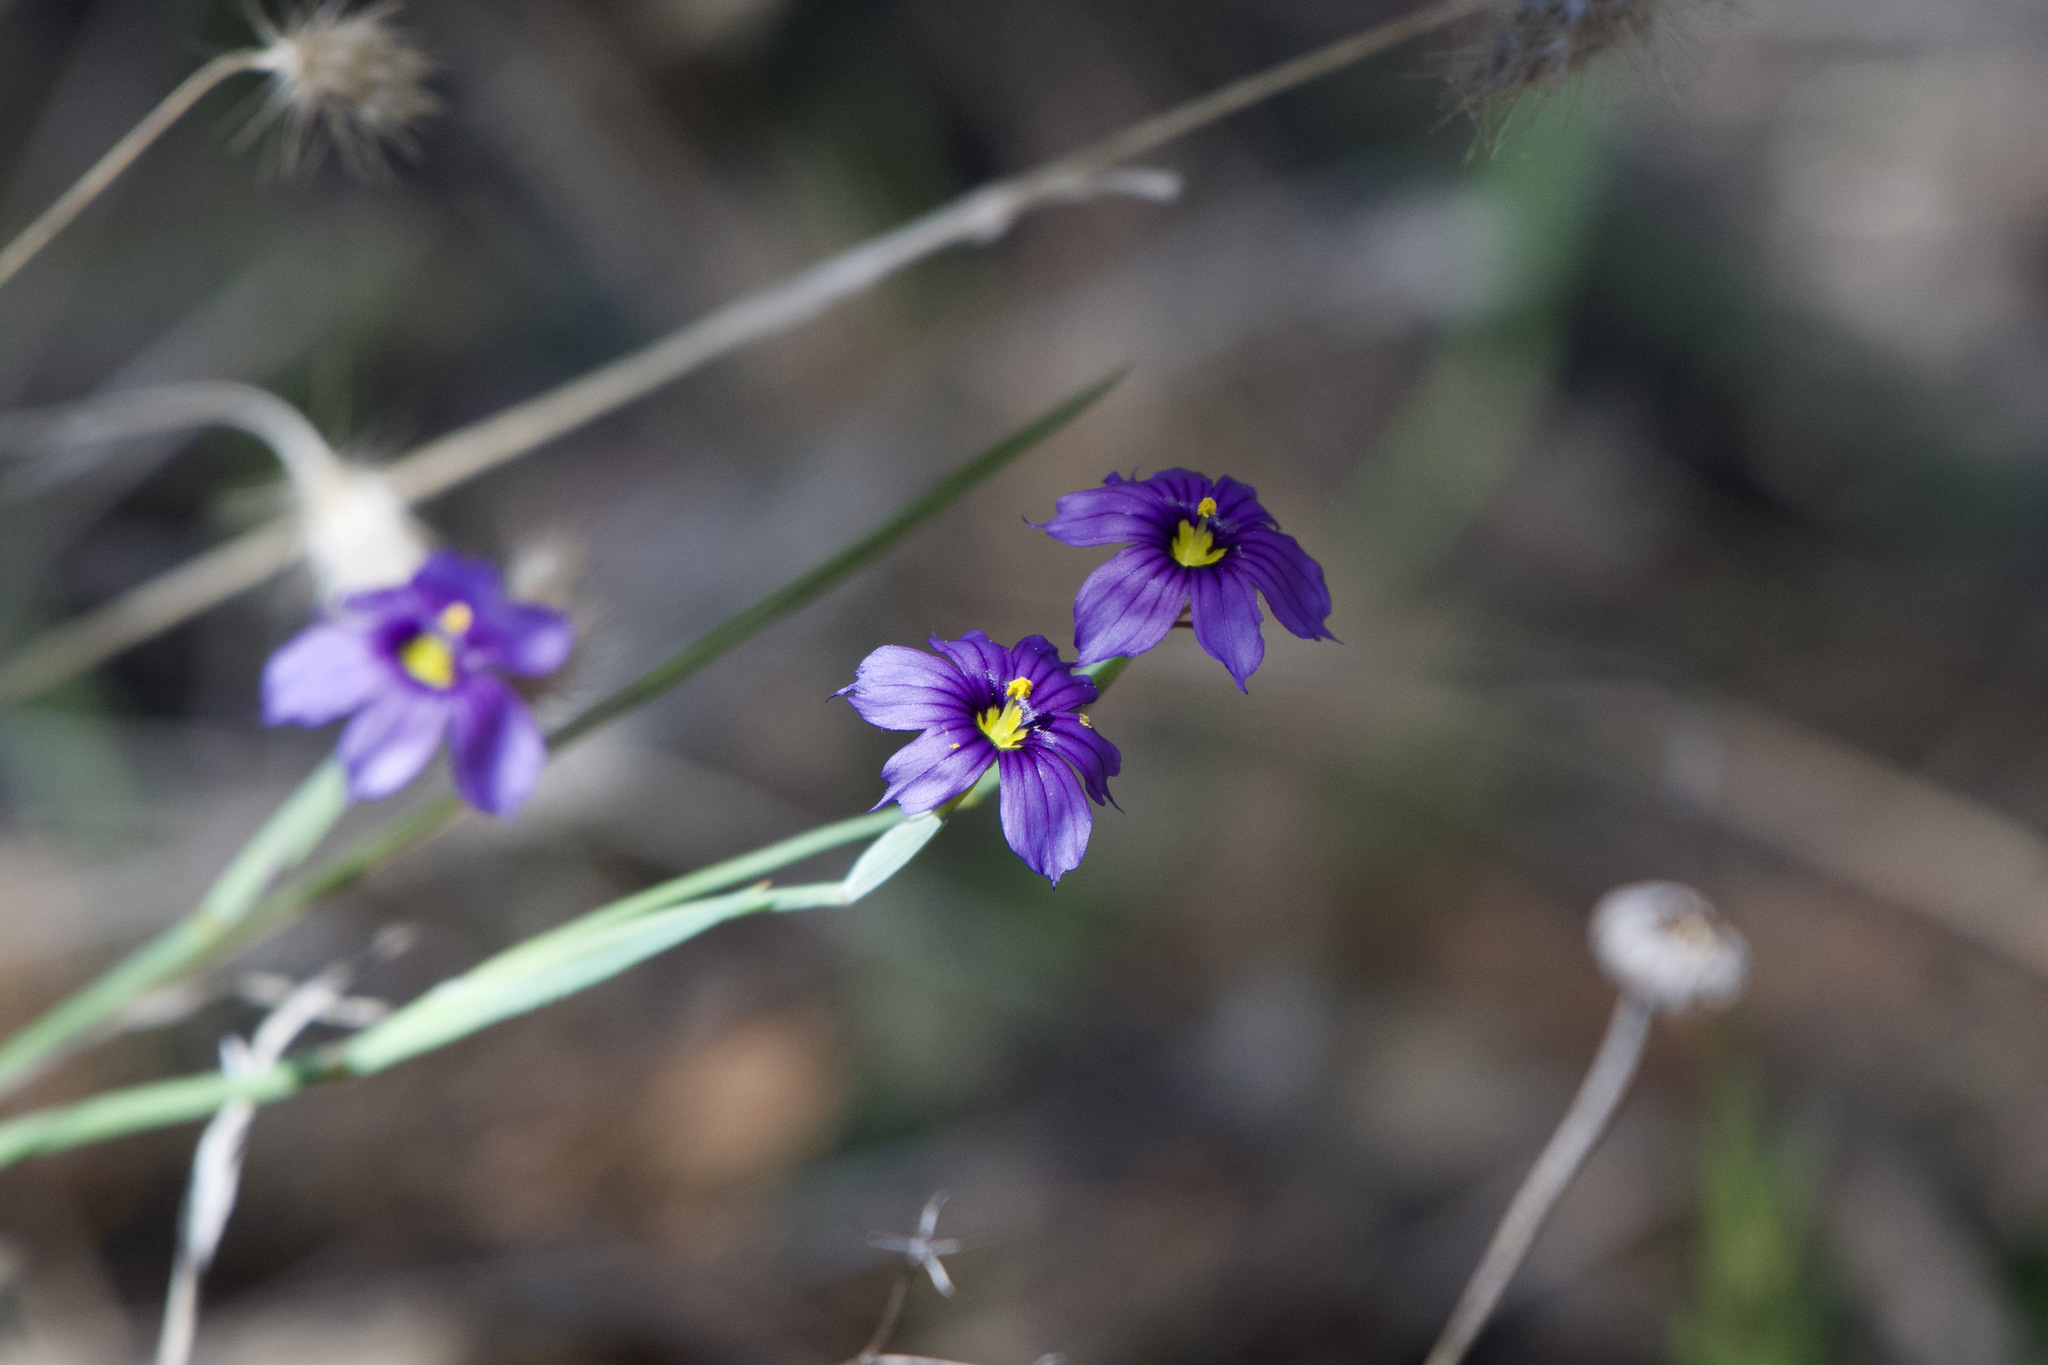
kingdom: Plantae
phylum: Tracheophyta
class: Liliopsida
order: Asparagales
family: Iridaceae
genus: Sisyrinchium
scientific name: Sisyrinchium bellum
